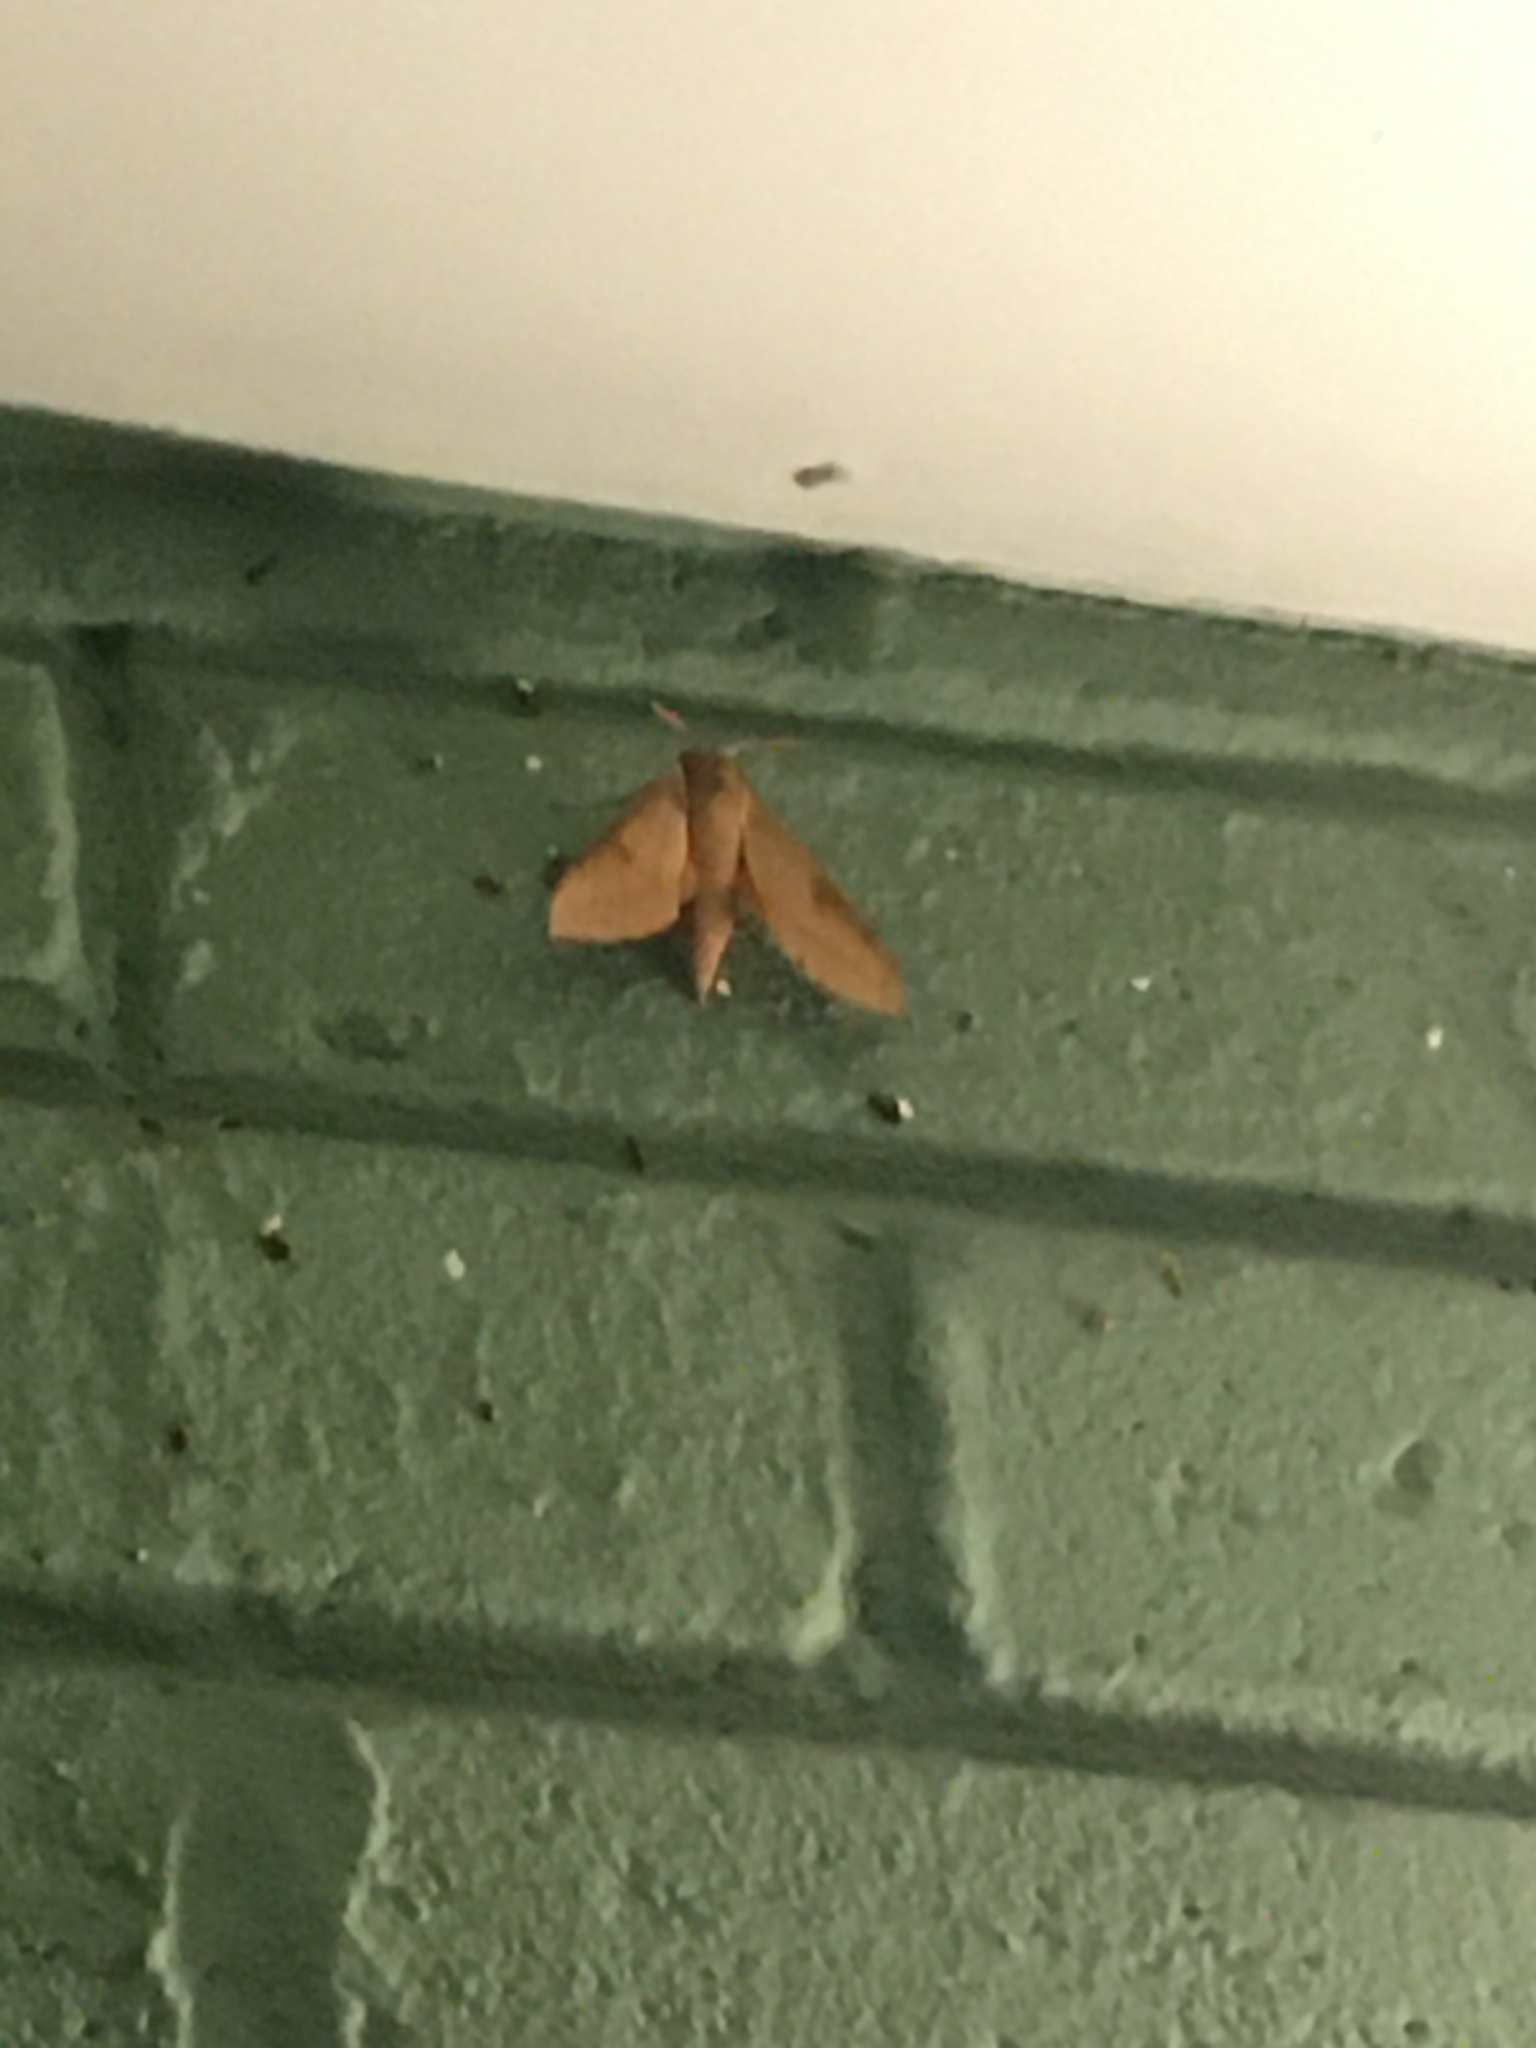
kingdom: Animalia
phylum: Arthropoda
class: Insecta
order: Lepidoptera
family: Sphingidae
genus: Theretra
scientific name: Theretra capensis
